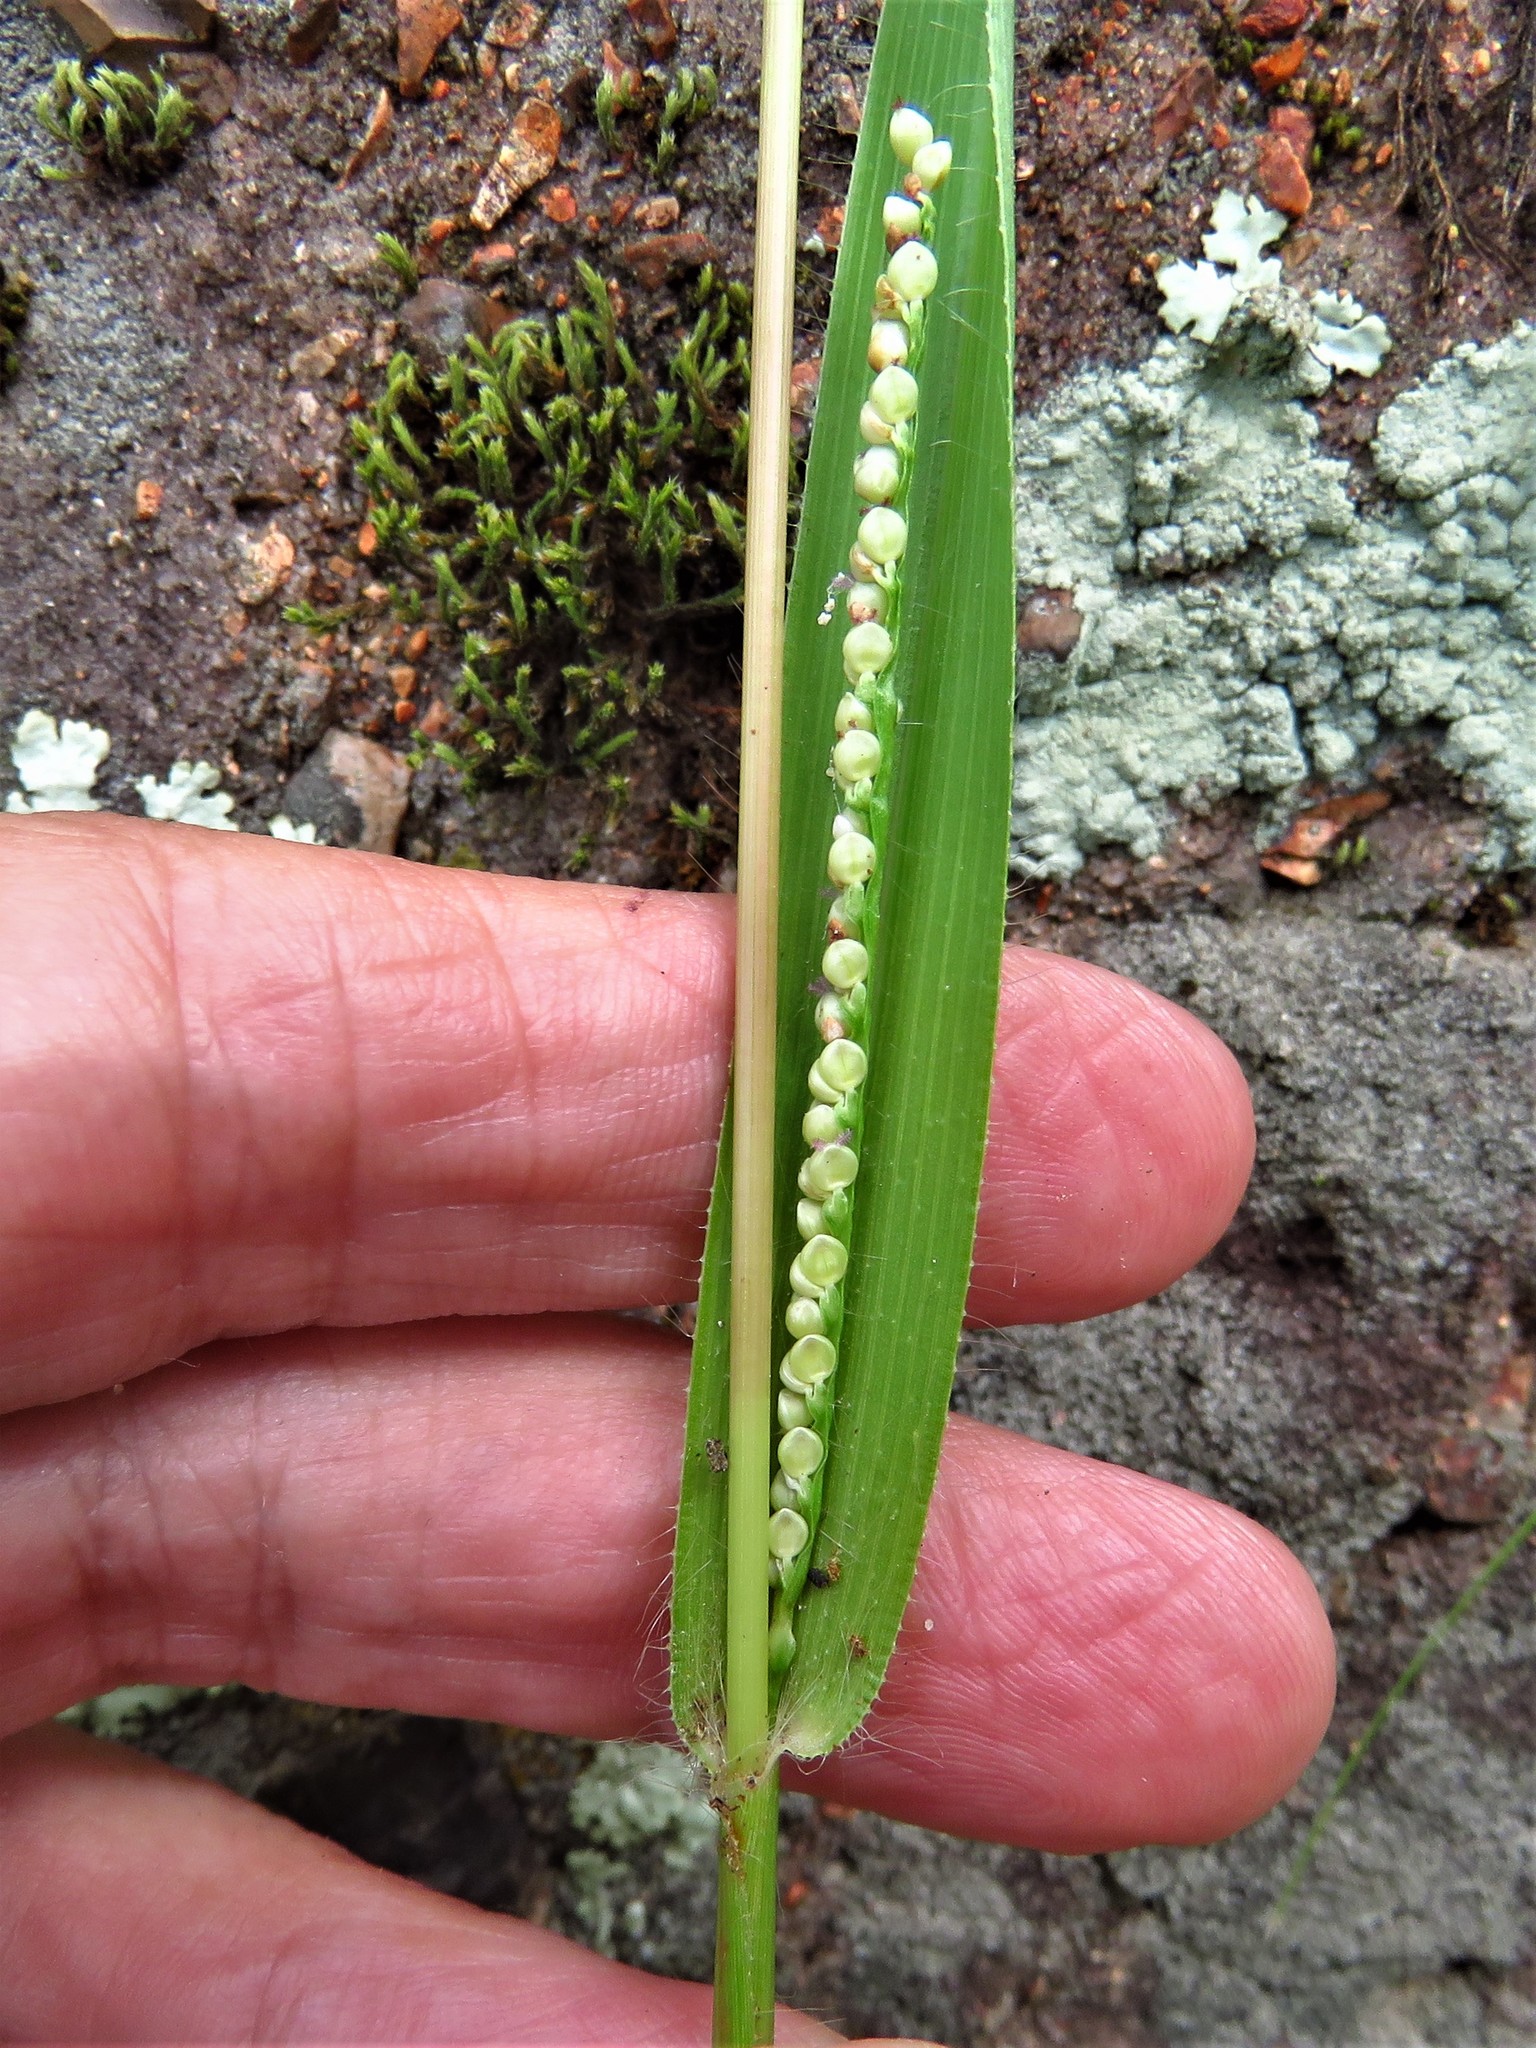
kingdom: Plantae
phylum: Tracheophyta
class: Liliopsida
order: Poales
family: Poaceae
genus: Paspalum
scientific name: Paspalum setaceum
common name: Slender paspalum
